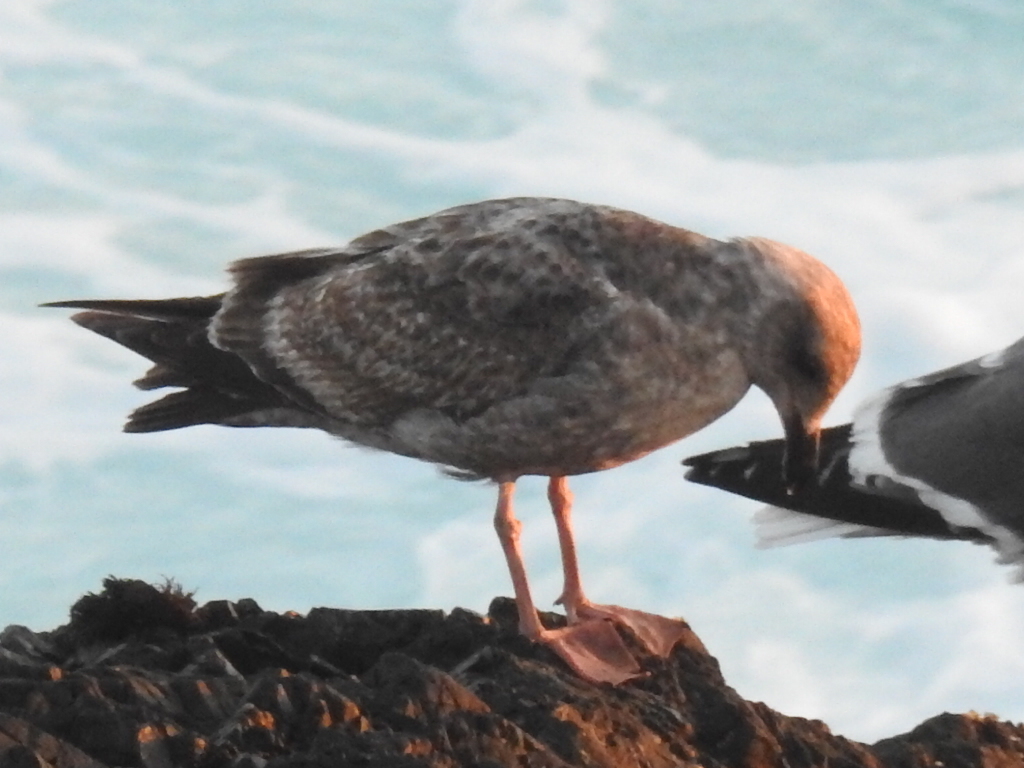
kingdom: Animalia
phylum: Chordata
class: Aves
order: Charadriiformes
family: Laridae
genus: Larus
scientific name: Larus occidentalis
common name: Western gull
